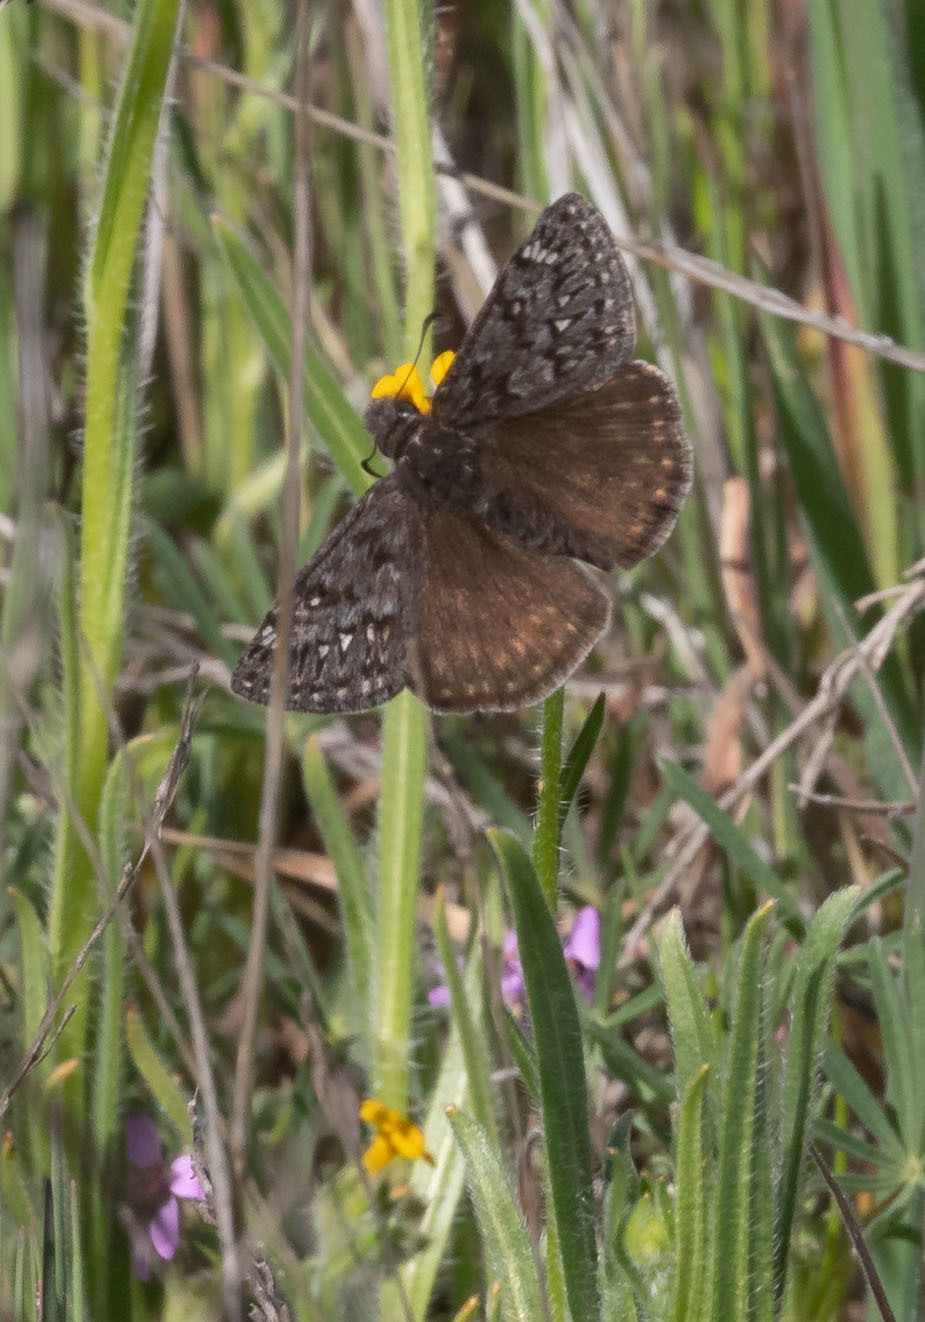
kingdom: Animalia
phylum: Arthropoda
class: Insecta
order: Lepidoptera
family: Hesperiidae
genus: Erynnis
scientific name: Erynnis propertius
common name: Propertius duskywing
